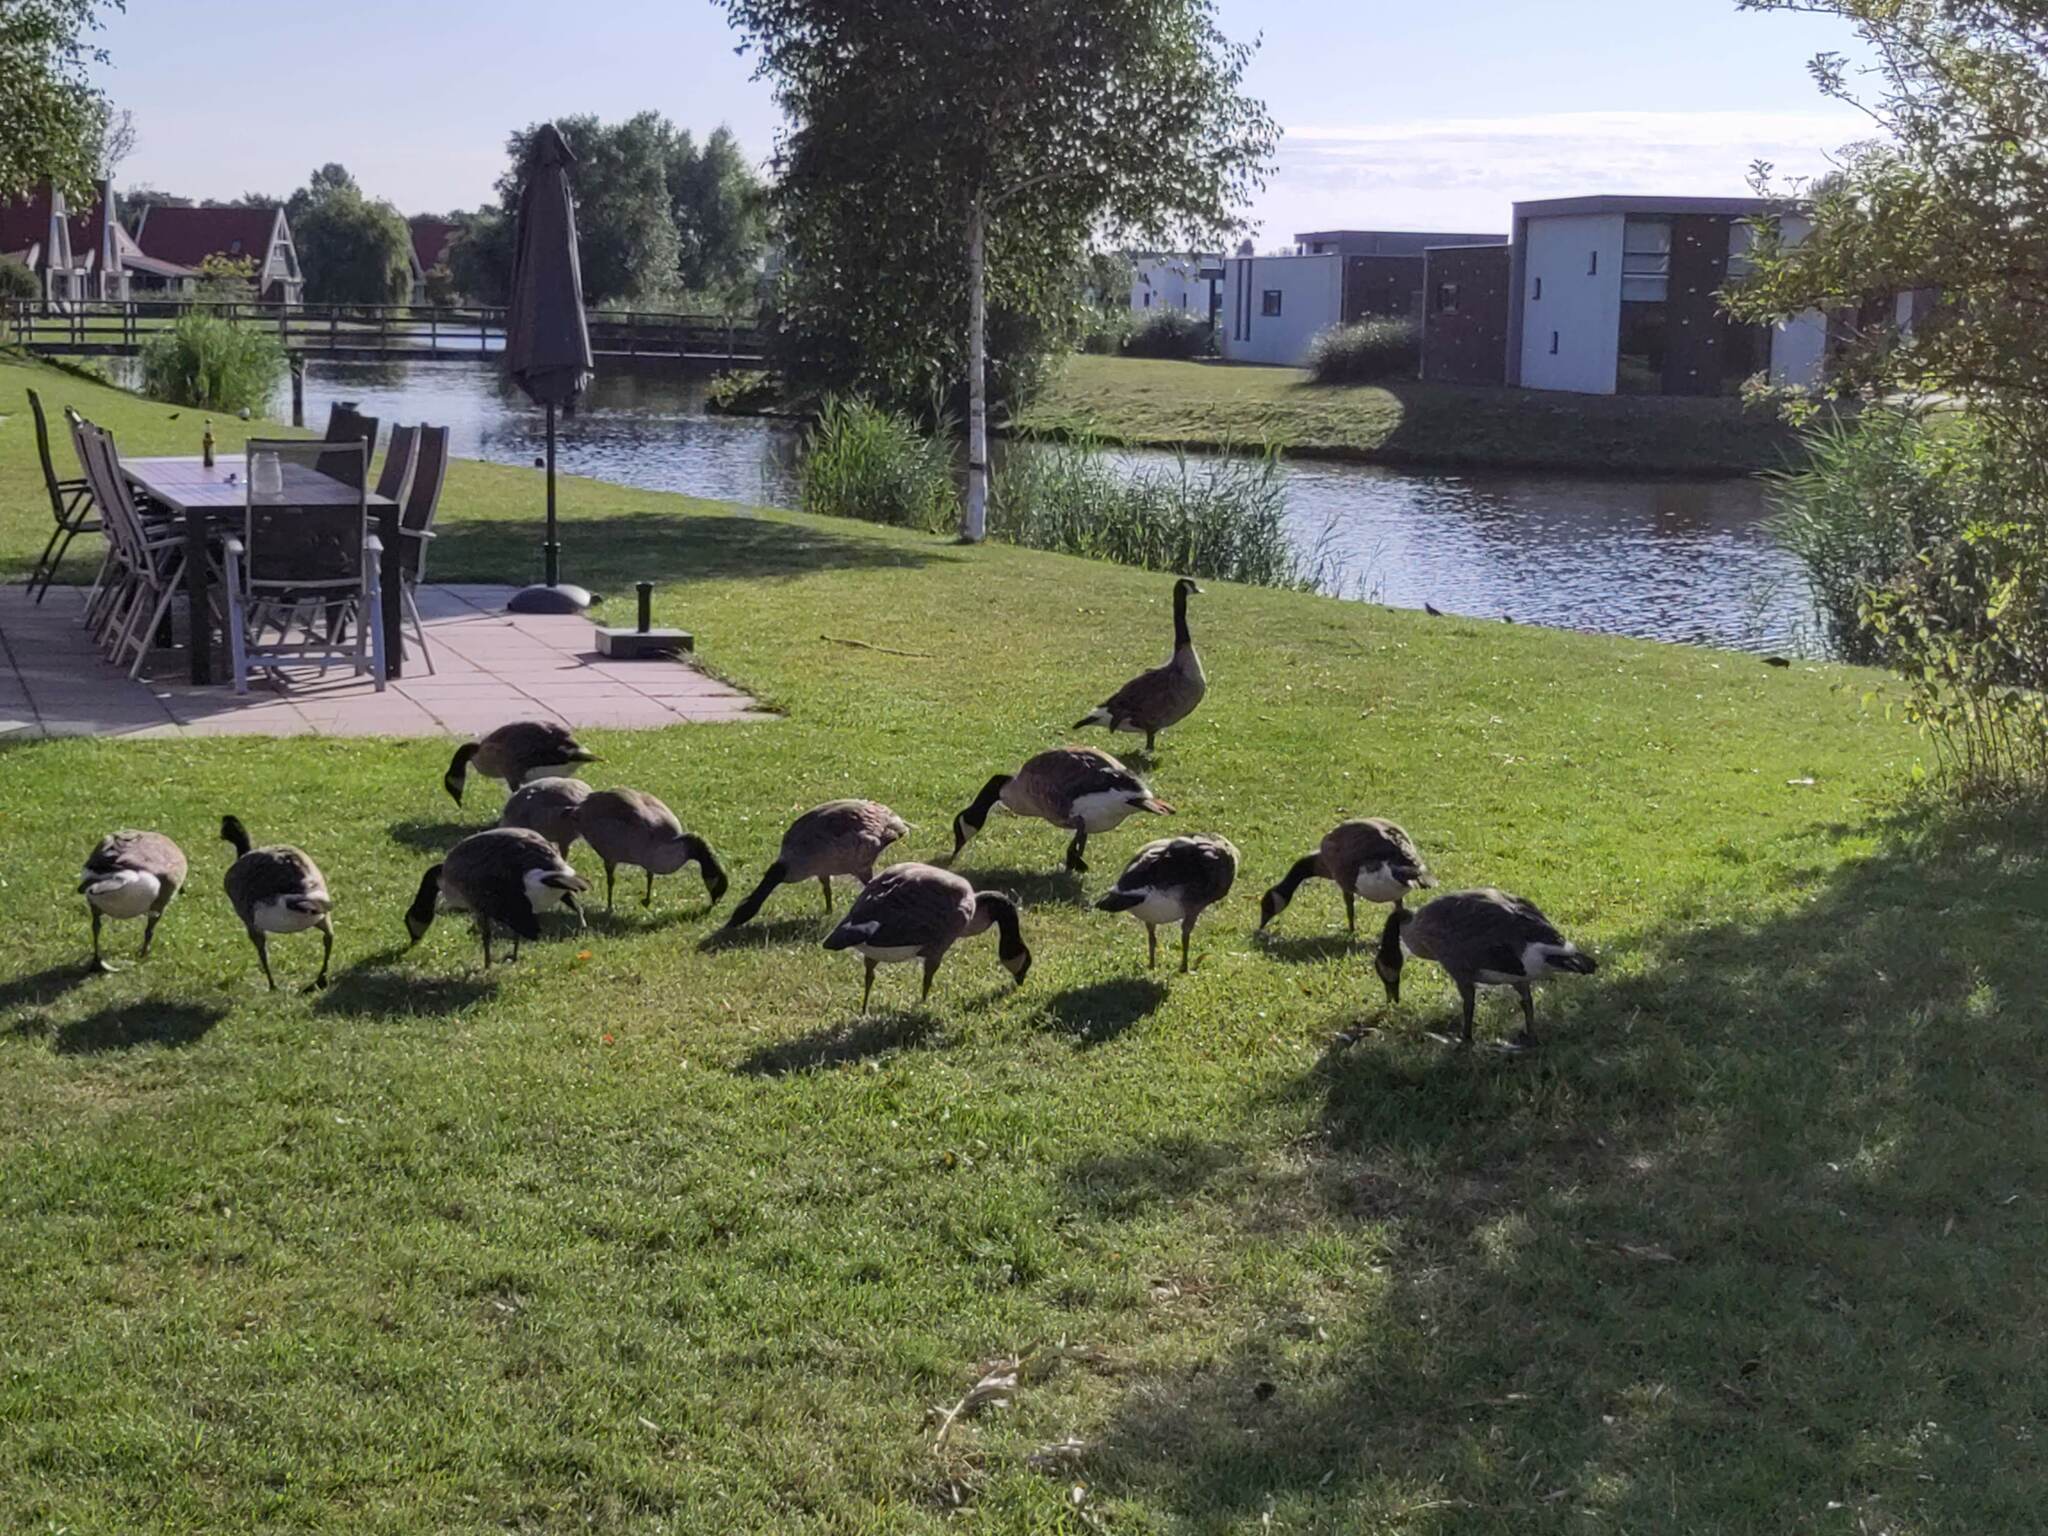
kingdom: Animalia
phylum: Chordata
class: Aves
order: Anseriformes
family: Anatidae
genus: Branta
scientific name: Branta canadensis
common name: Canada goose
